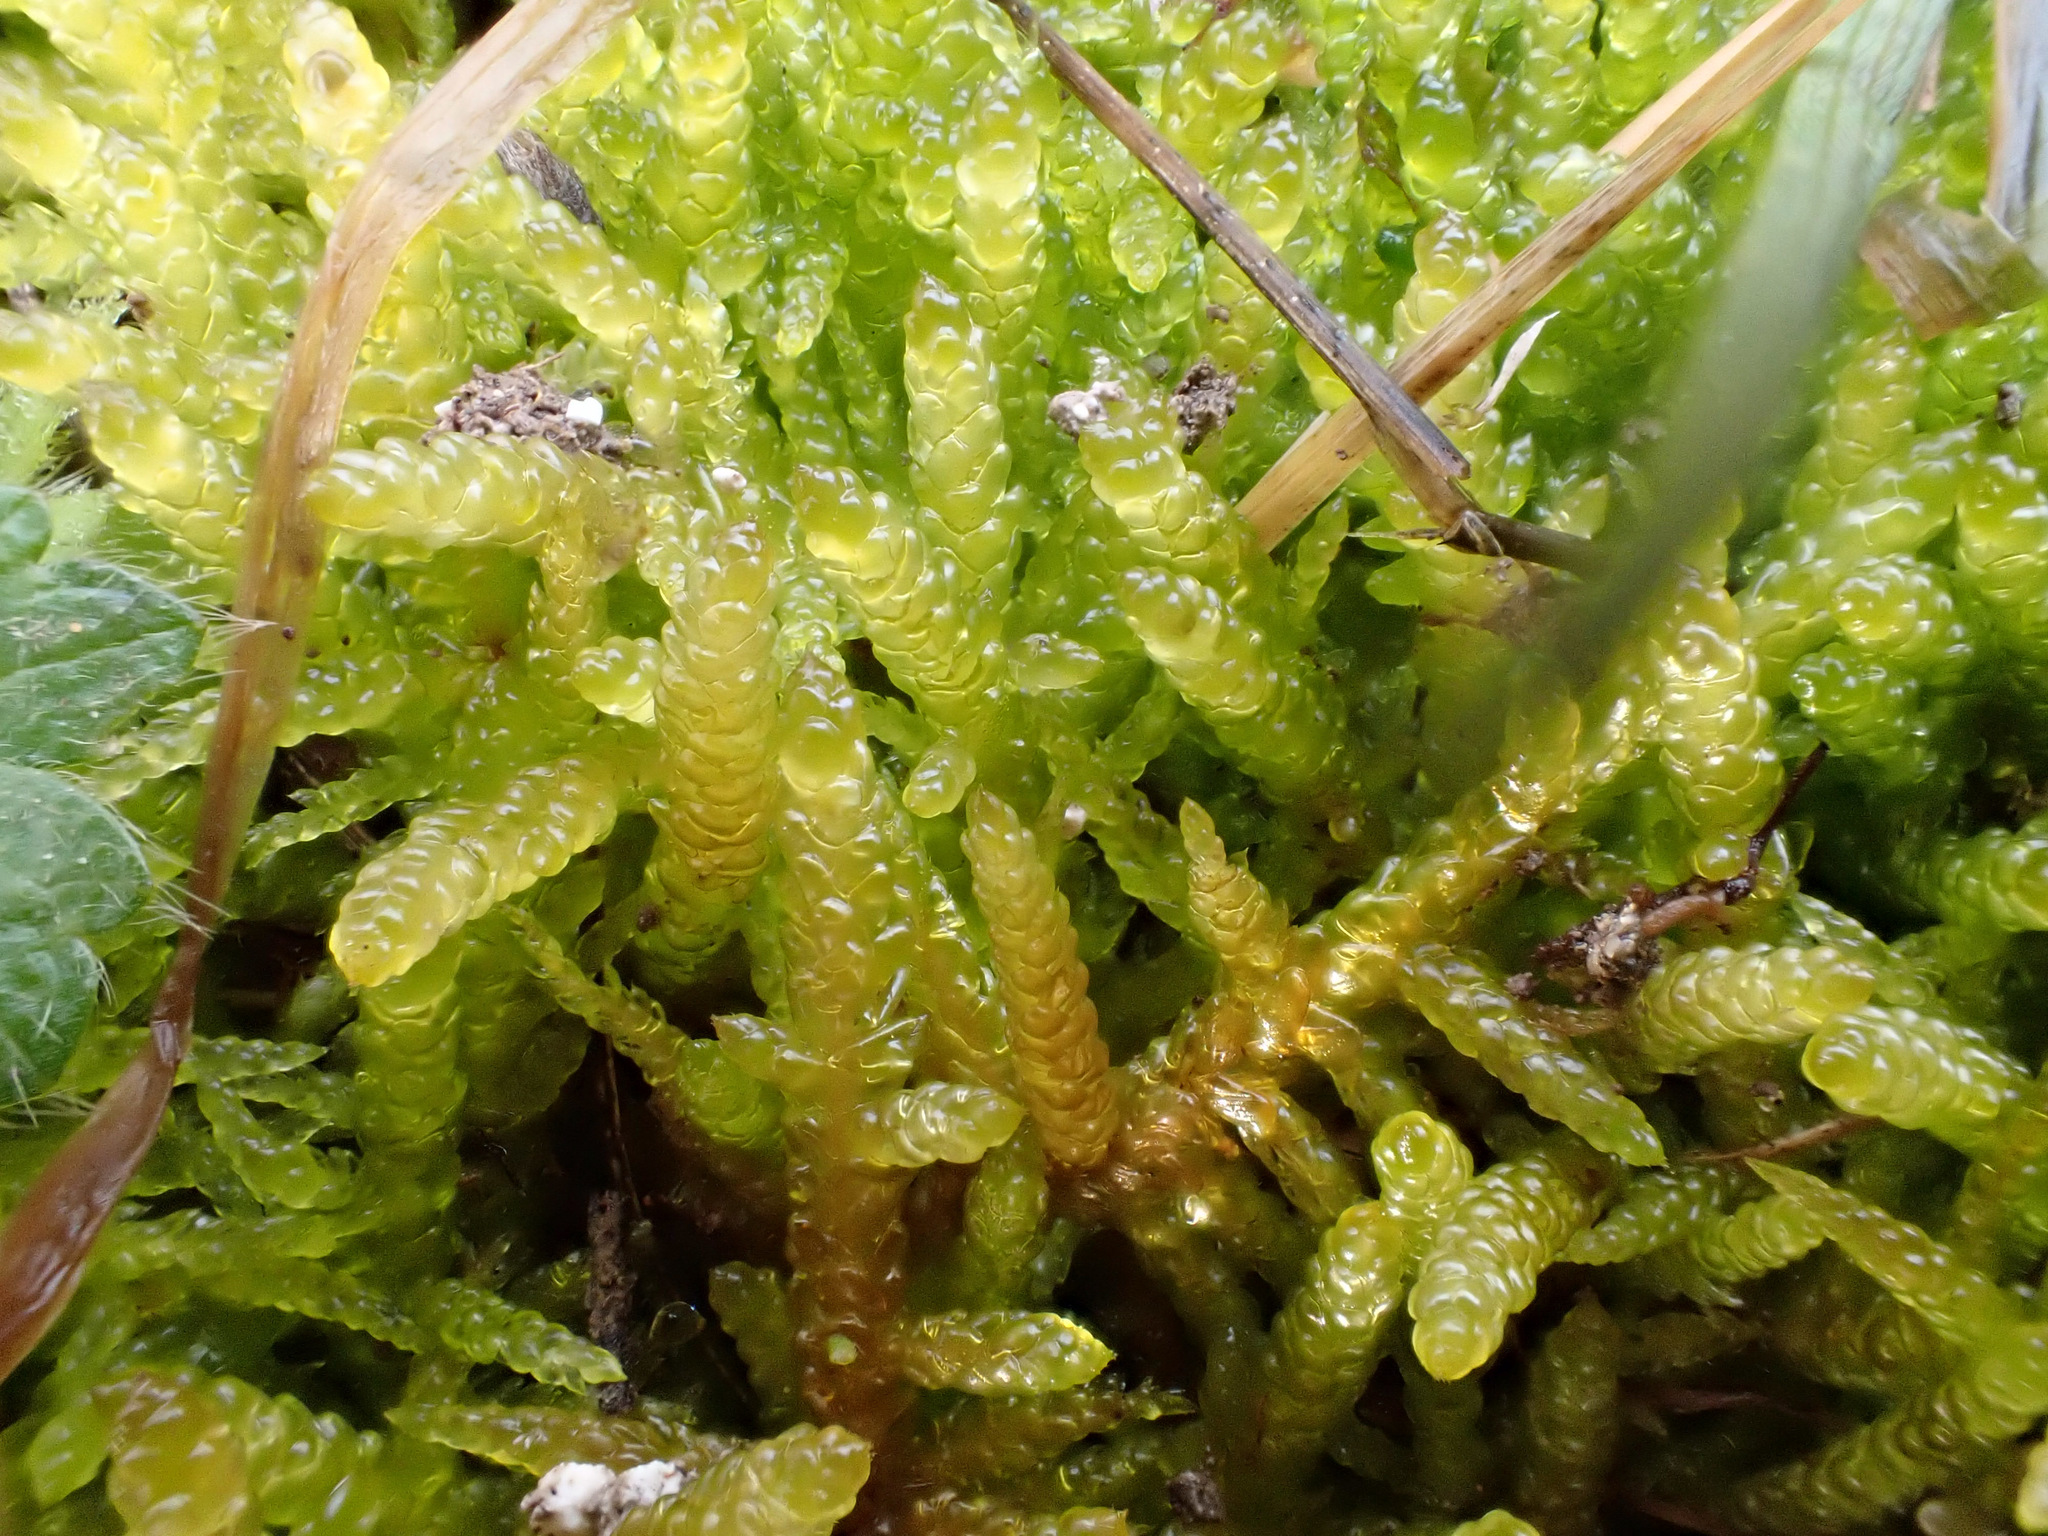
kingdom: Plantae
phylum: Bryophyta
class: Bryopsida
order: Hypnales
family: Brachytheciaceae
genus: Pseudoscleropodium
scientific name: Pseudoscleropodium purum
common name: Neat feather-moss
